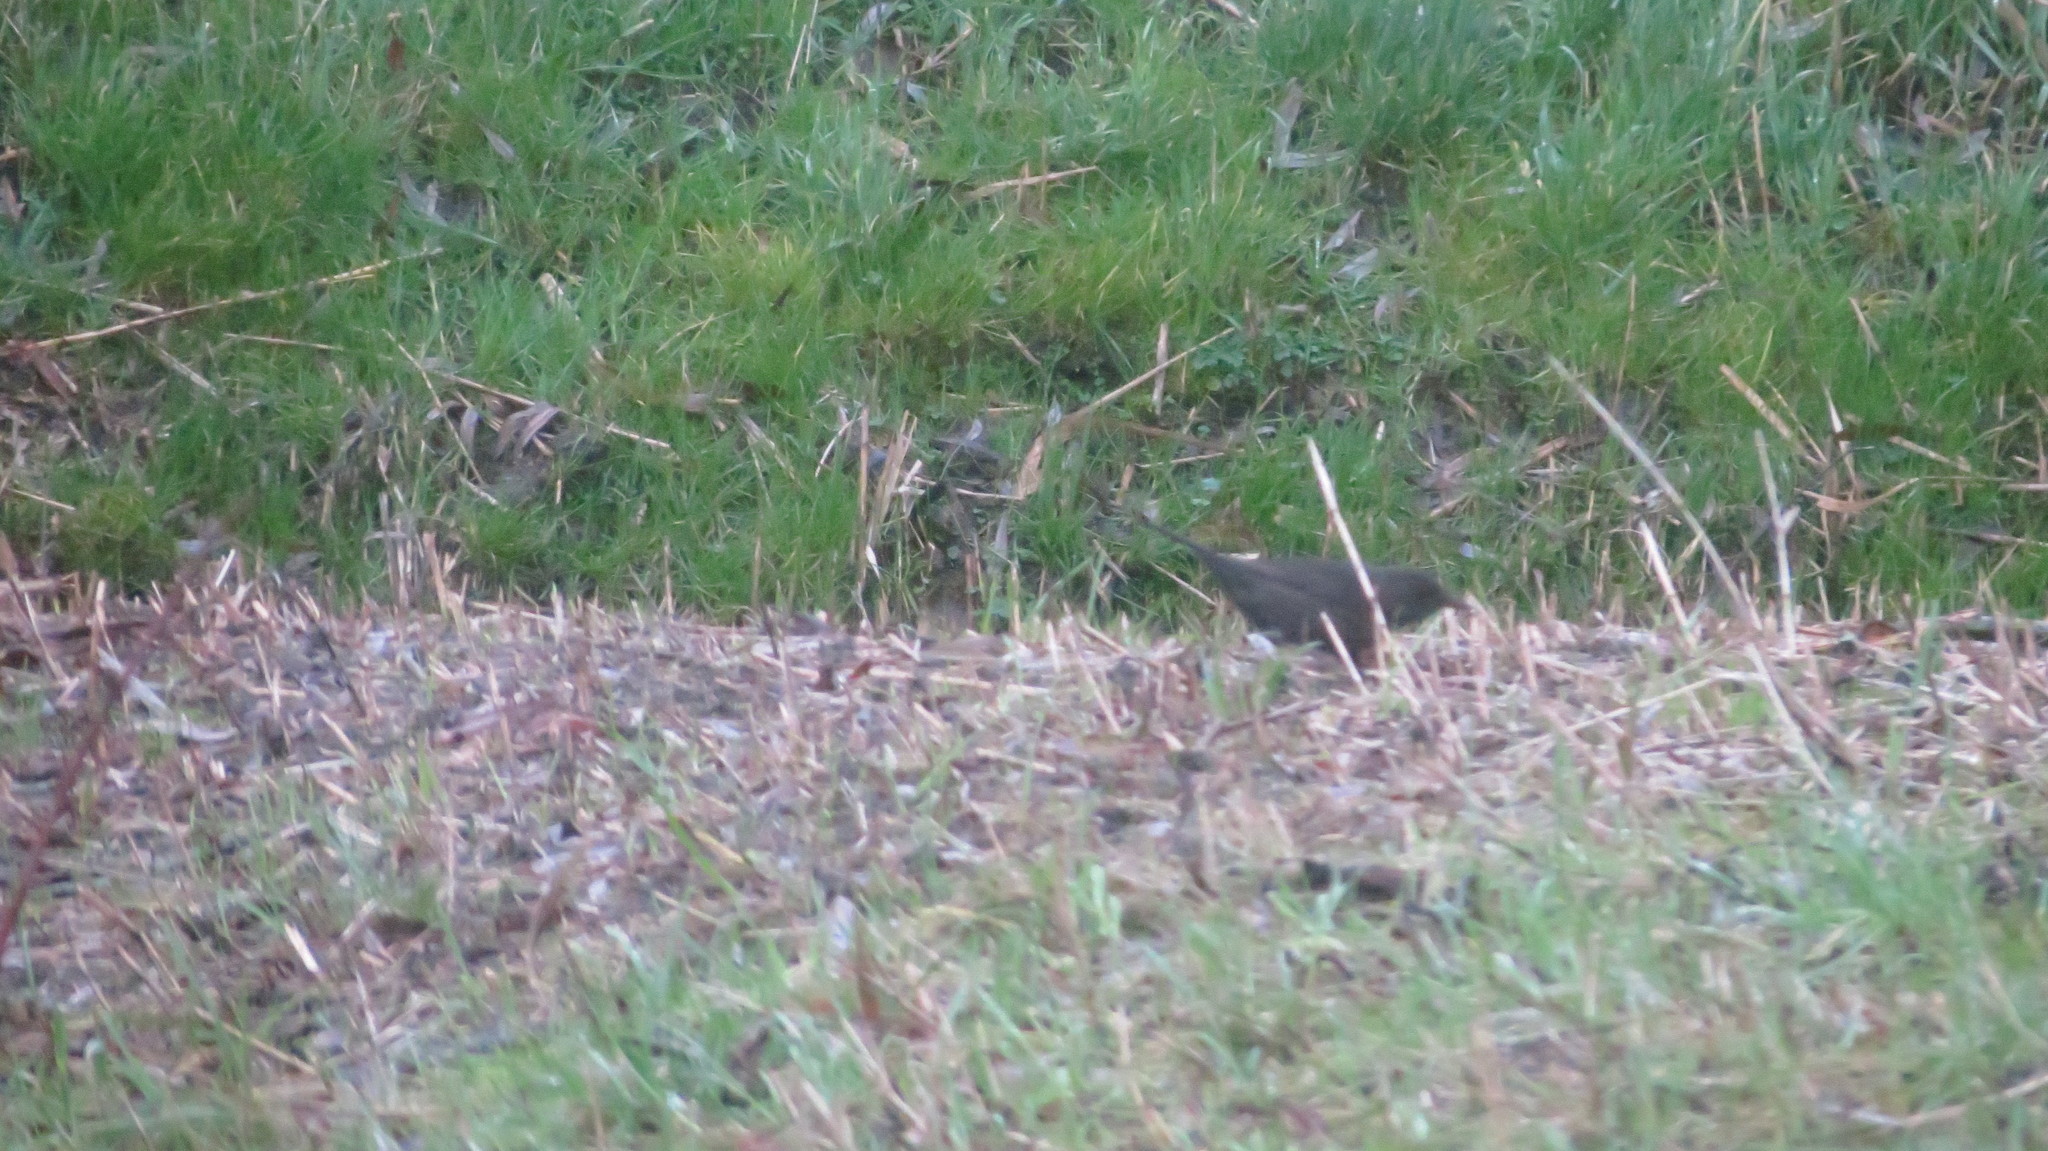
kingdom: Animalia
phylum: Chordata
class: Aves
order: Passeriformes
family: Turdidae
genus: Turdus
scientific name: Turdus merula
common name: Common blackbird
